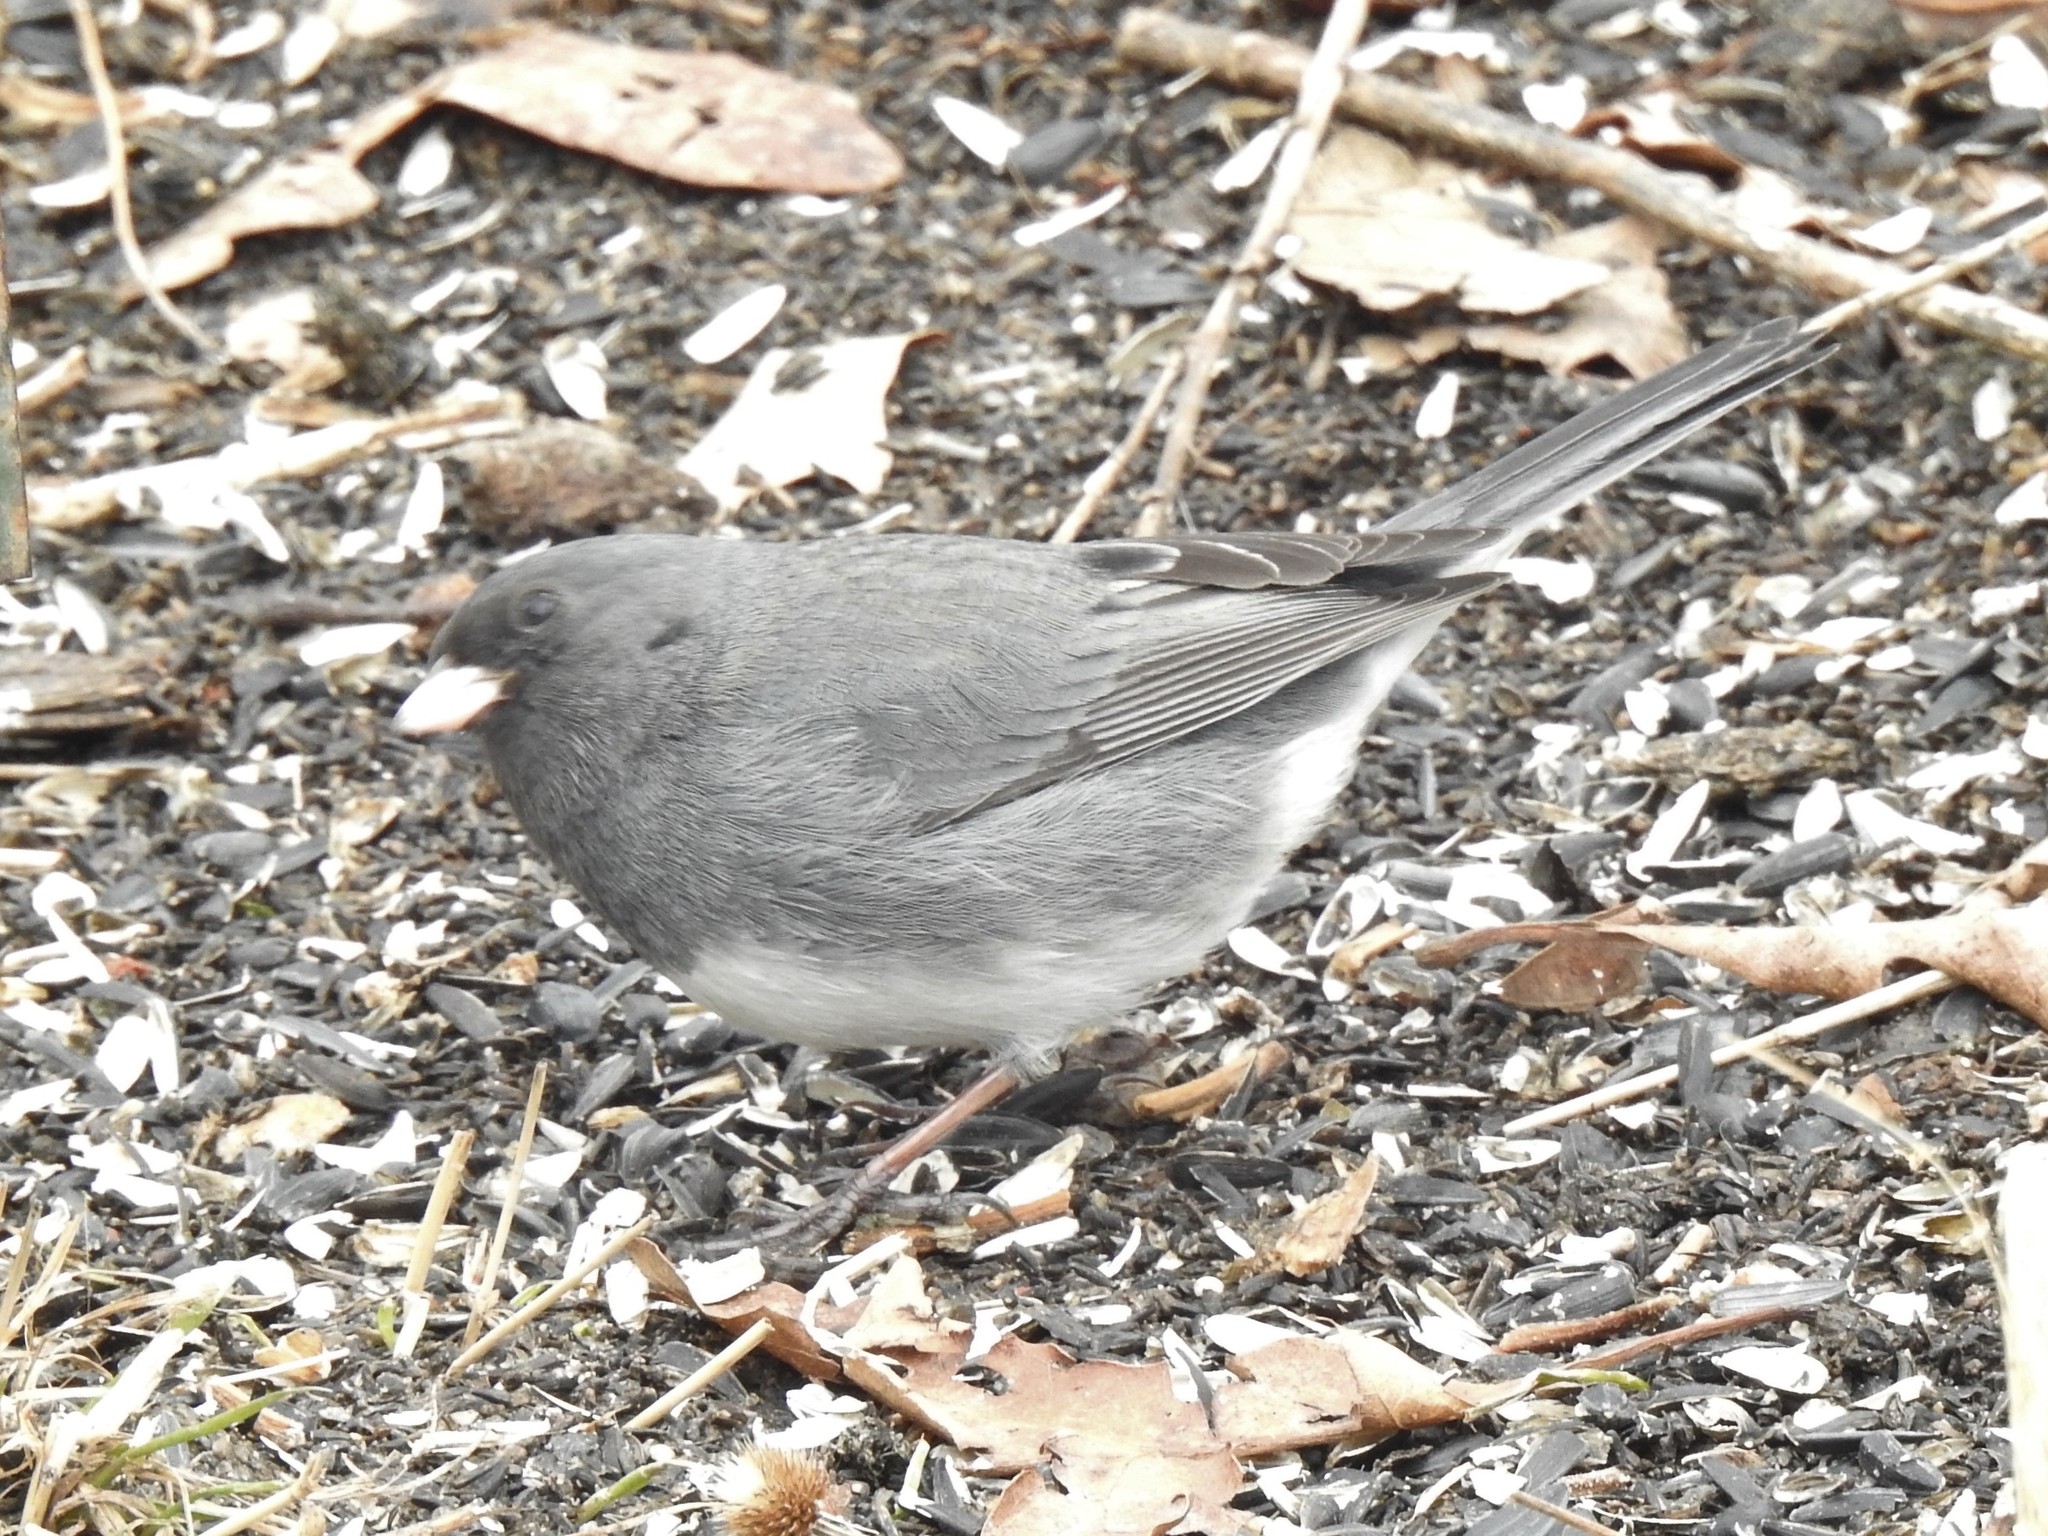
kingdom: Animalia
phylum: Chordata
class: Aves
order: Passeriformes
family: Passerellidae
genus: Junco
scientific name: Junco hyemalis
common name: Dark-eyed junco
